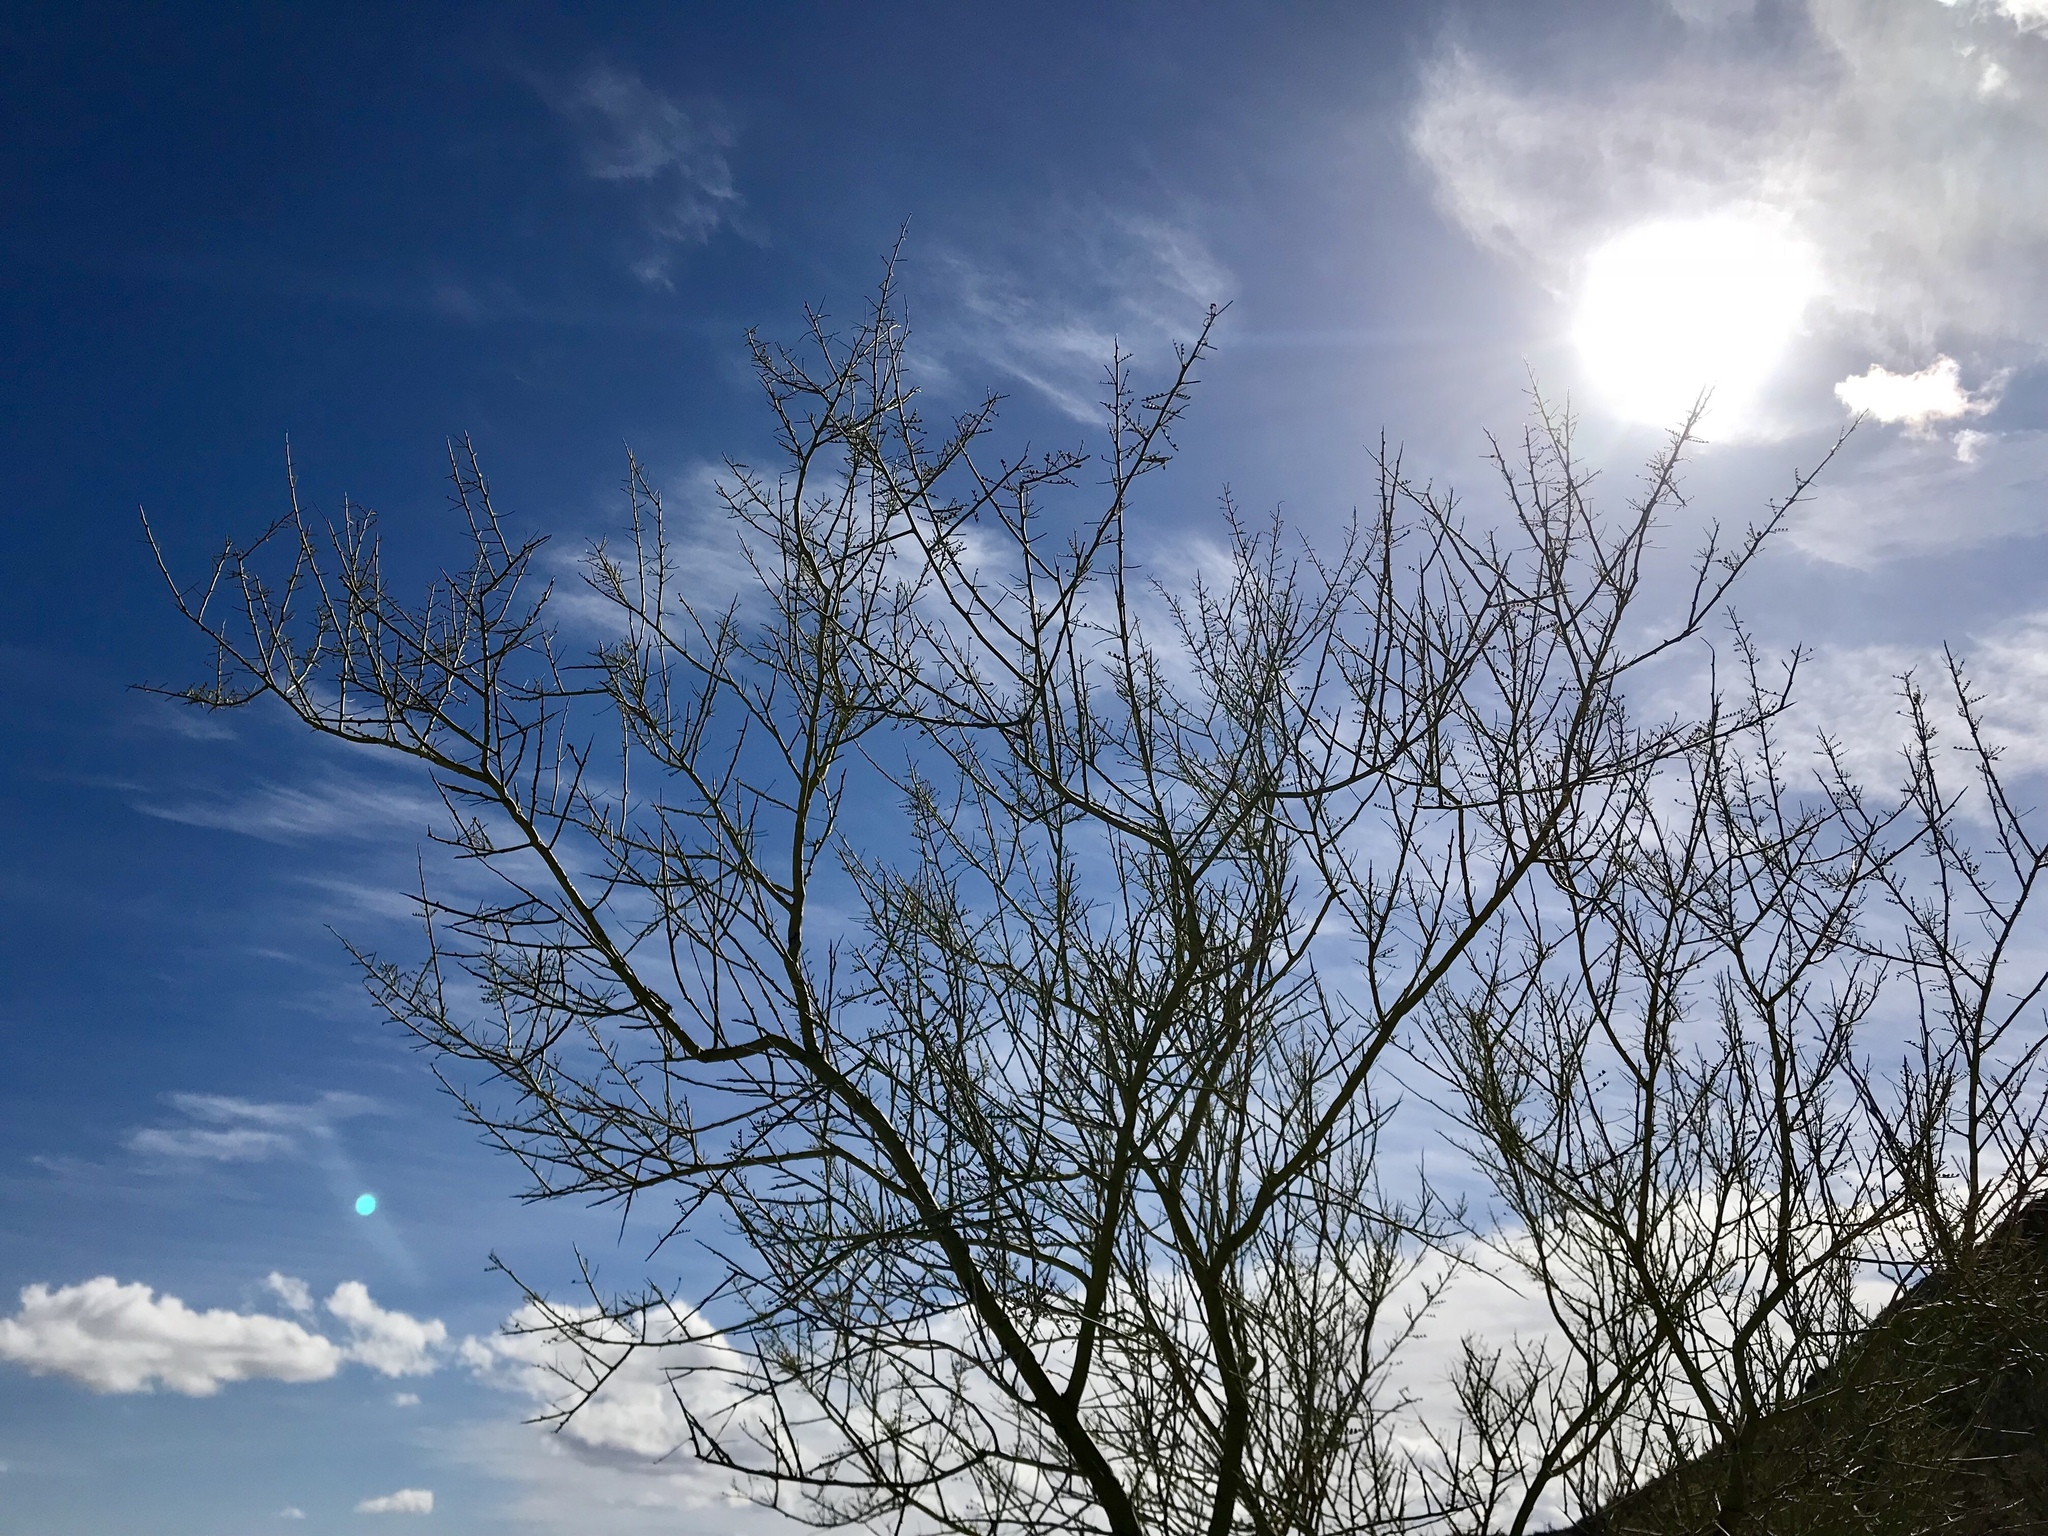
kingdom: Plantae
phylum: Tracheophyta
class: Magnoliopsida
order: Fabales
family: Fabaceae
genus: Parkinsonia
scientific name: Parkinsonia microphylla
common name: Yellow paloverde
